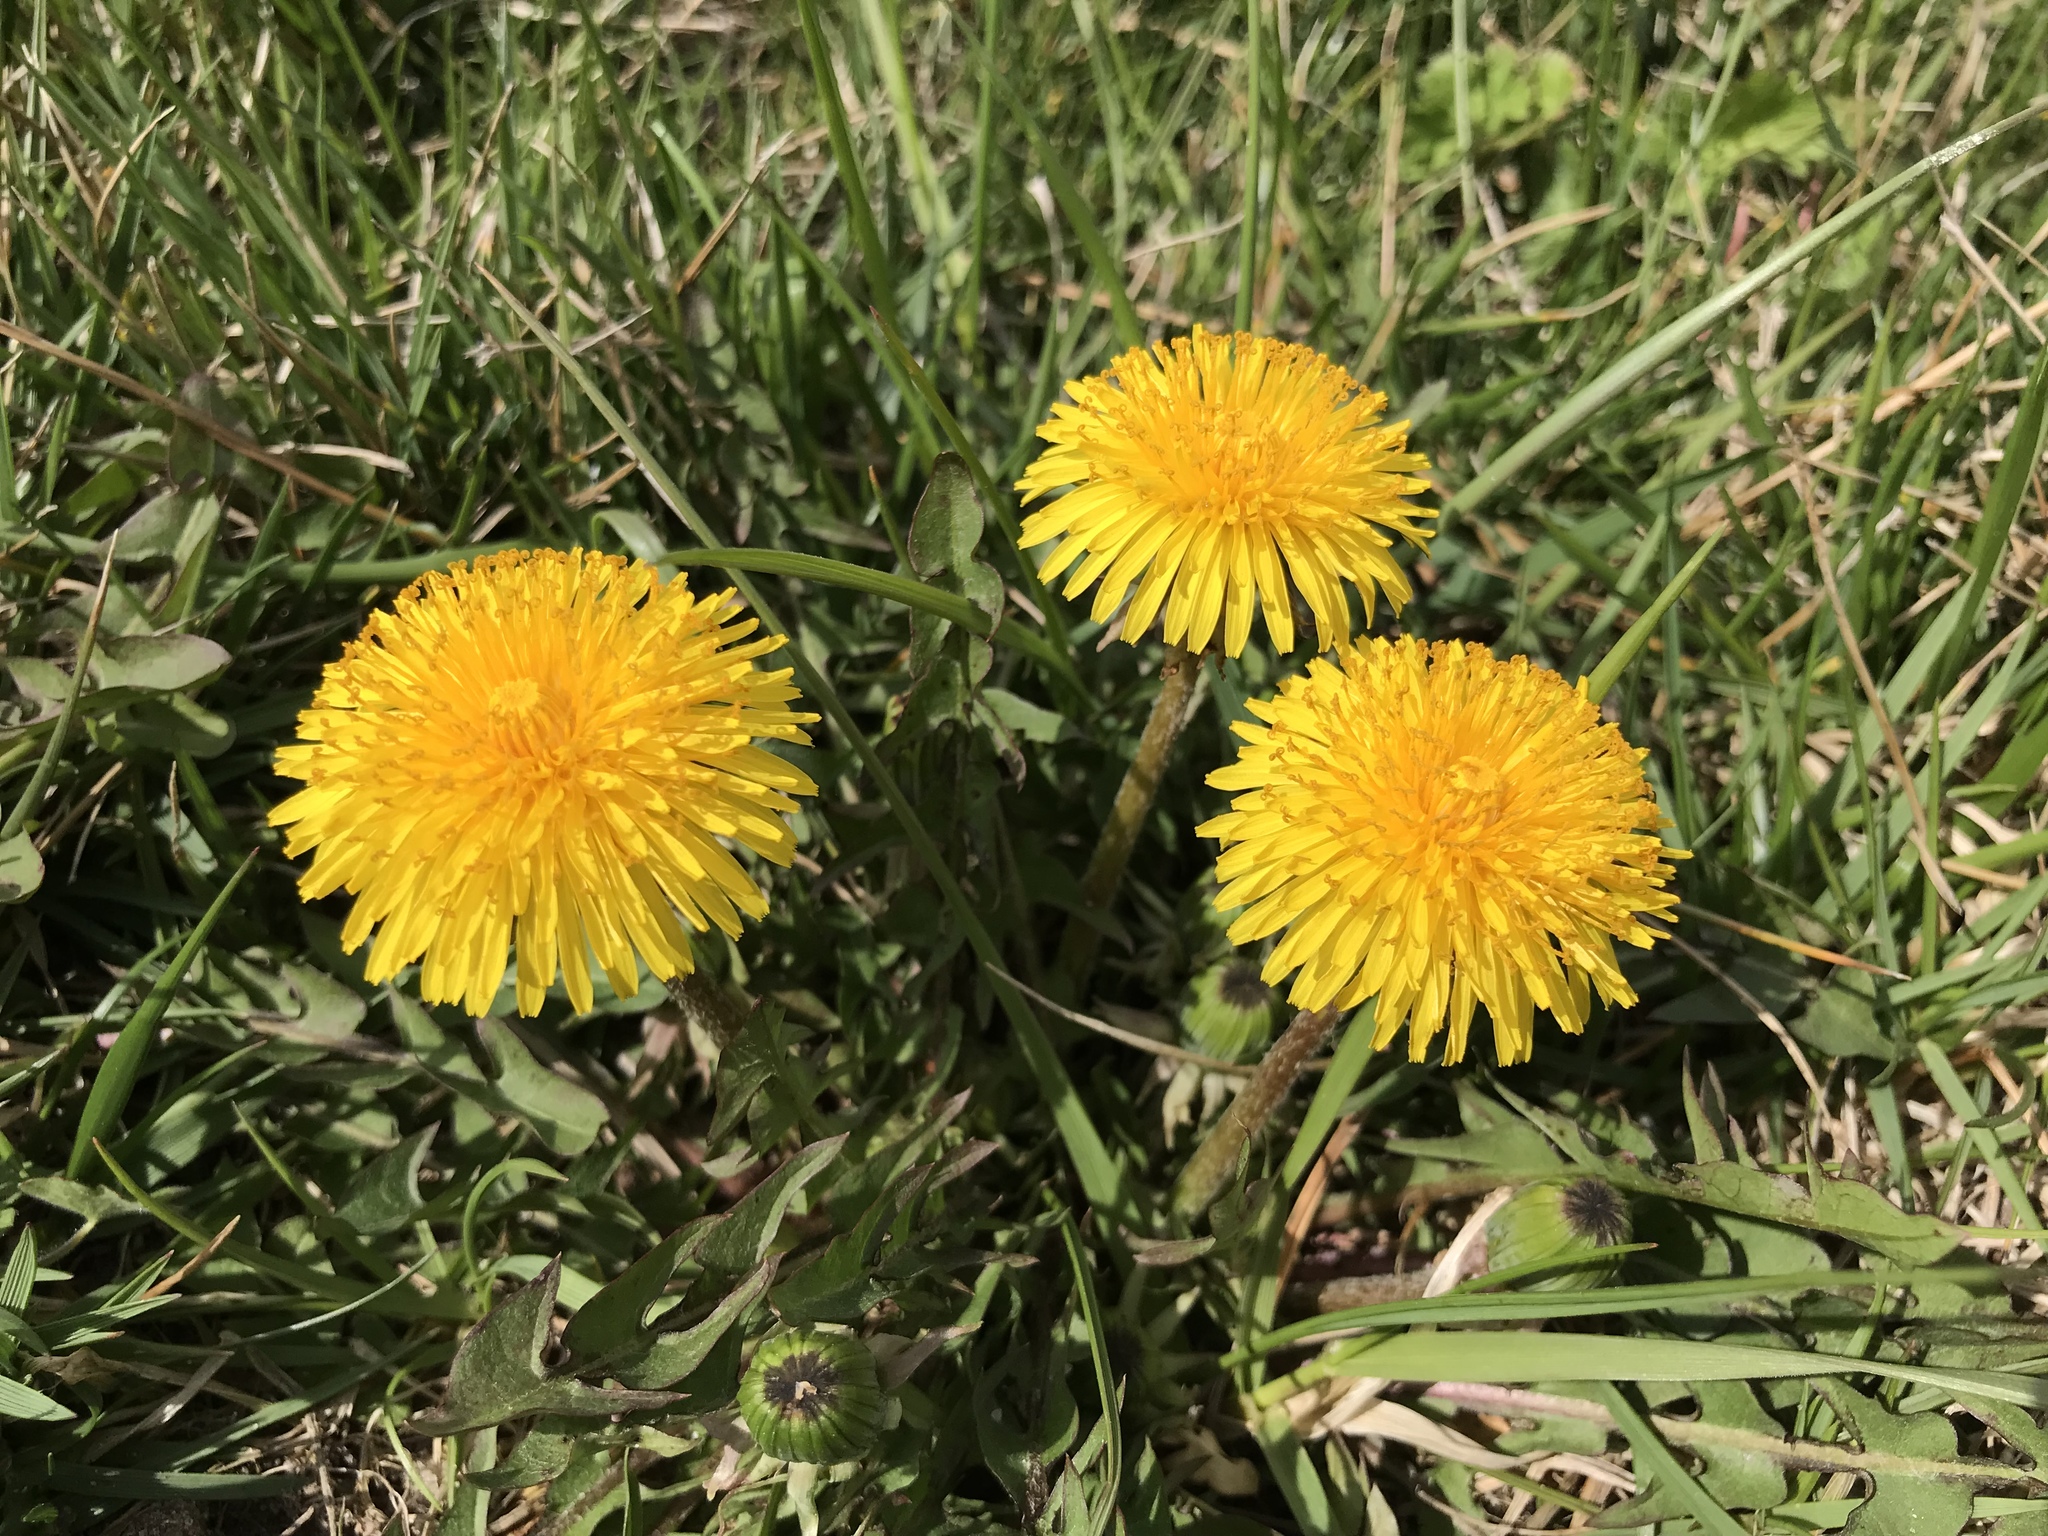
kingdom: Plantae
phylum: Tracheophyta
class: Magnoliopsida
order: Asterales
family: Asteraceae
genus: Taraxacum
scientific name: Taraxacum officinale
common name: Common dandelion
